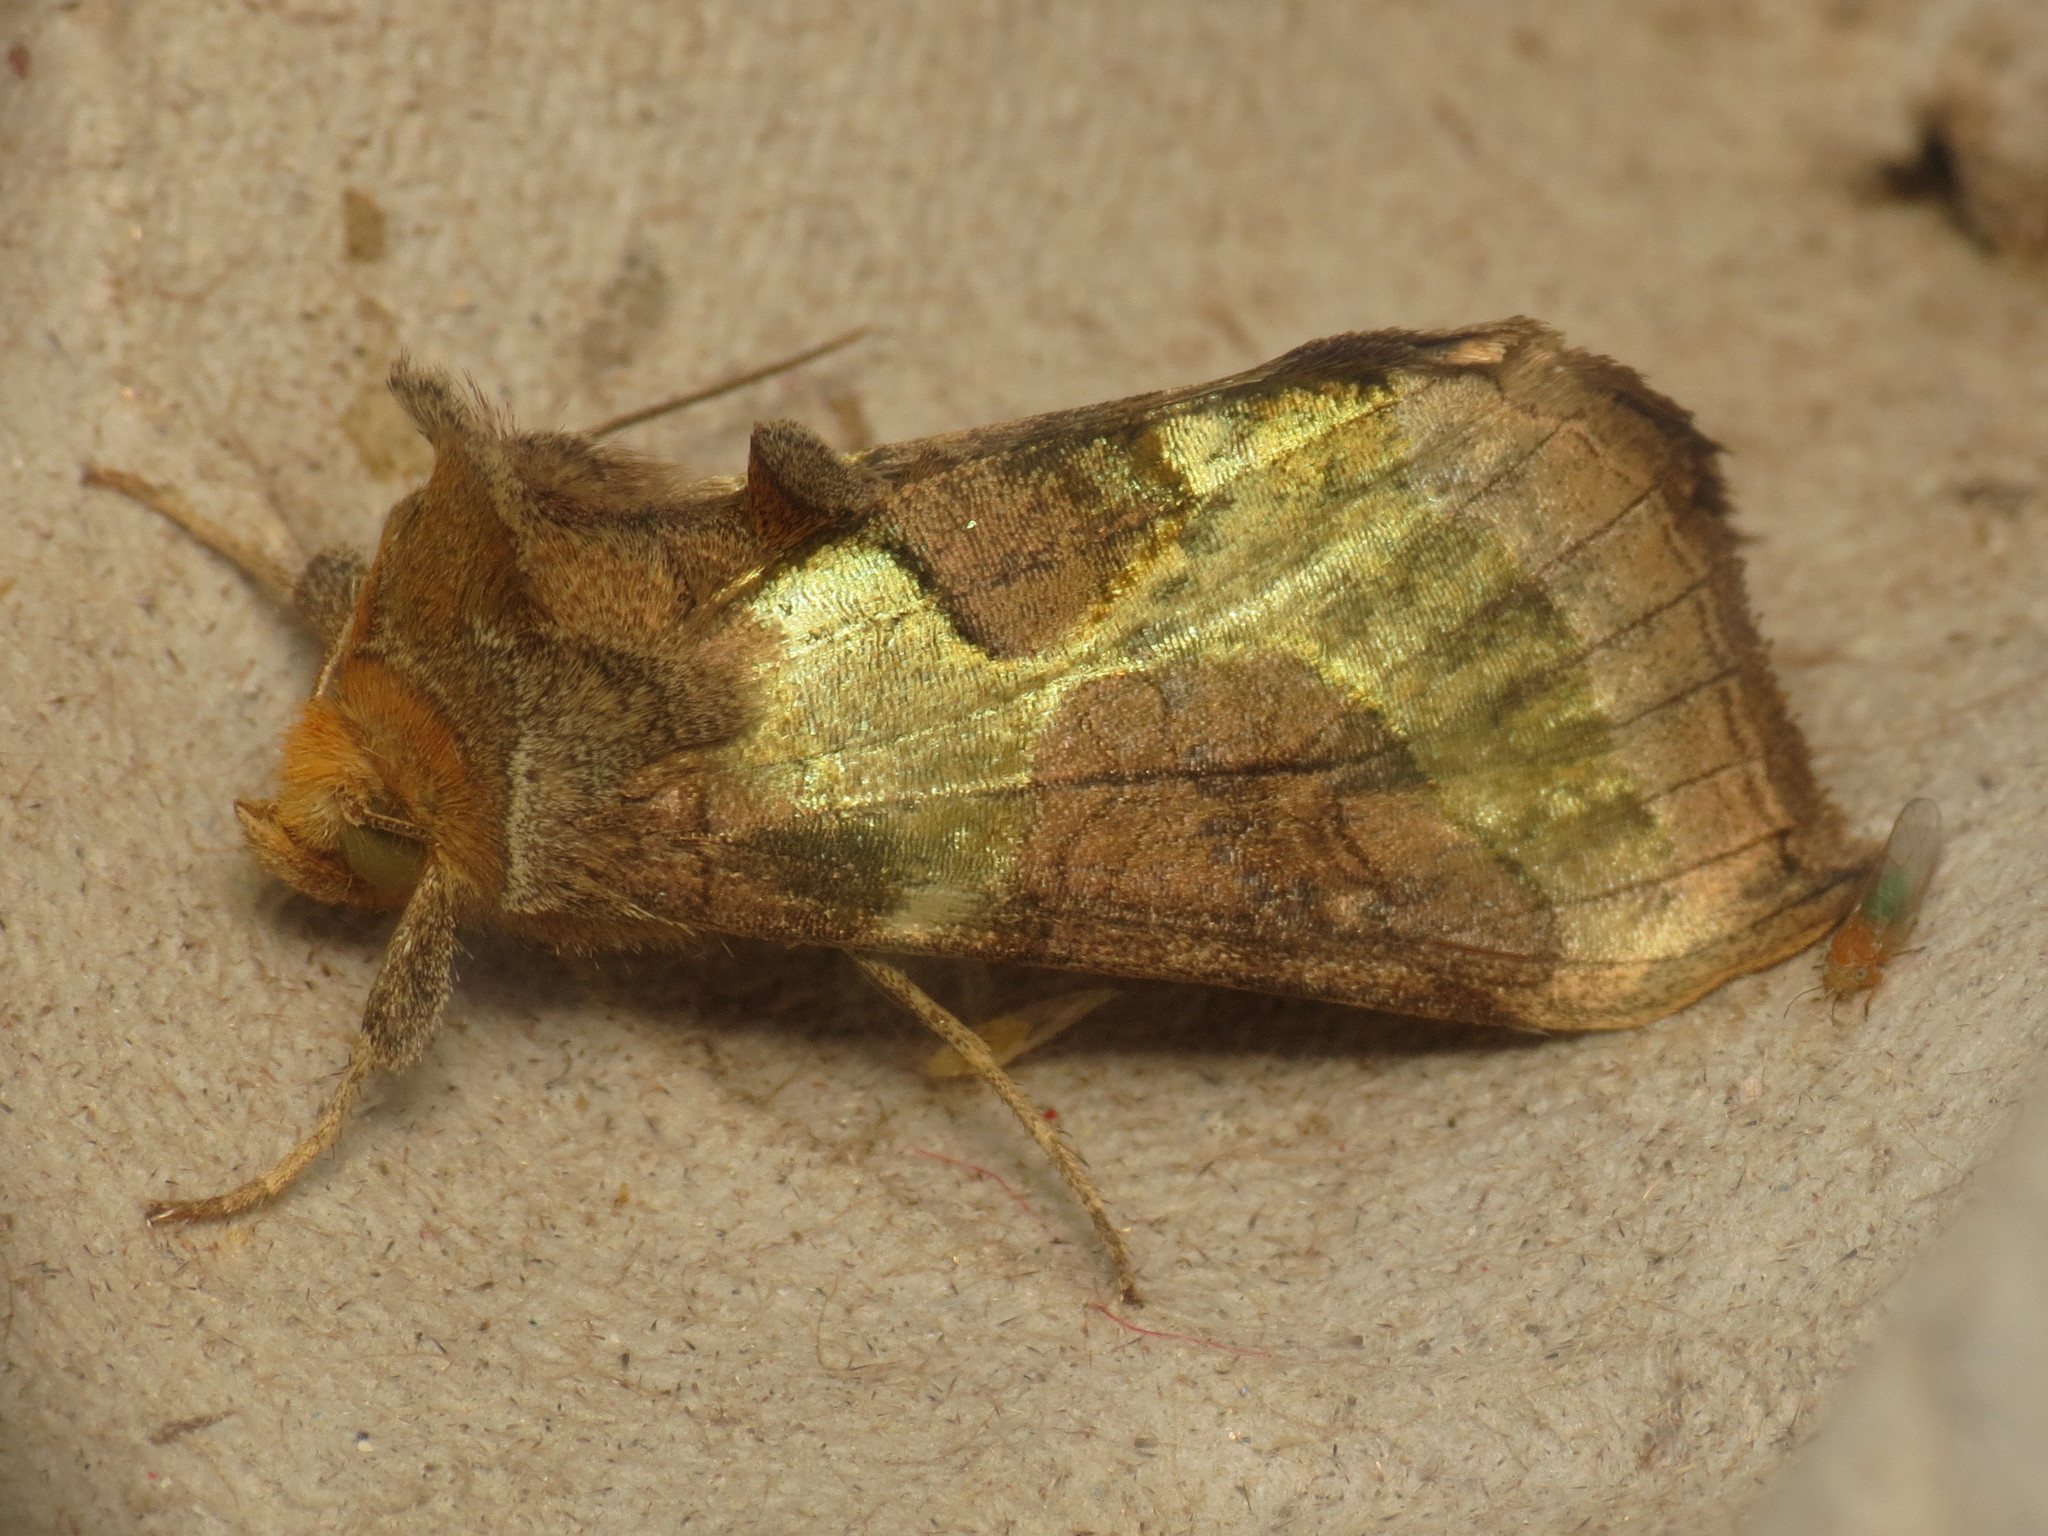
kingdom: Animalia
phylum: Arthropoda
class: Insecta
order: Lepidoptera
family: Noctuidae
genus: Diachrysia
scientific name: Diachrysia stenochrysis
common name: Cryptic burnished brass
